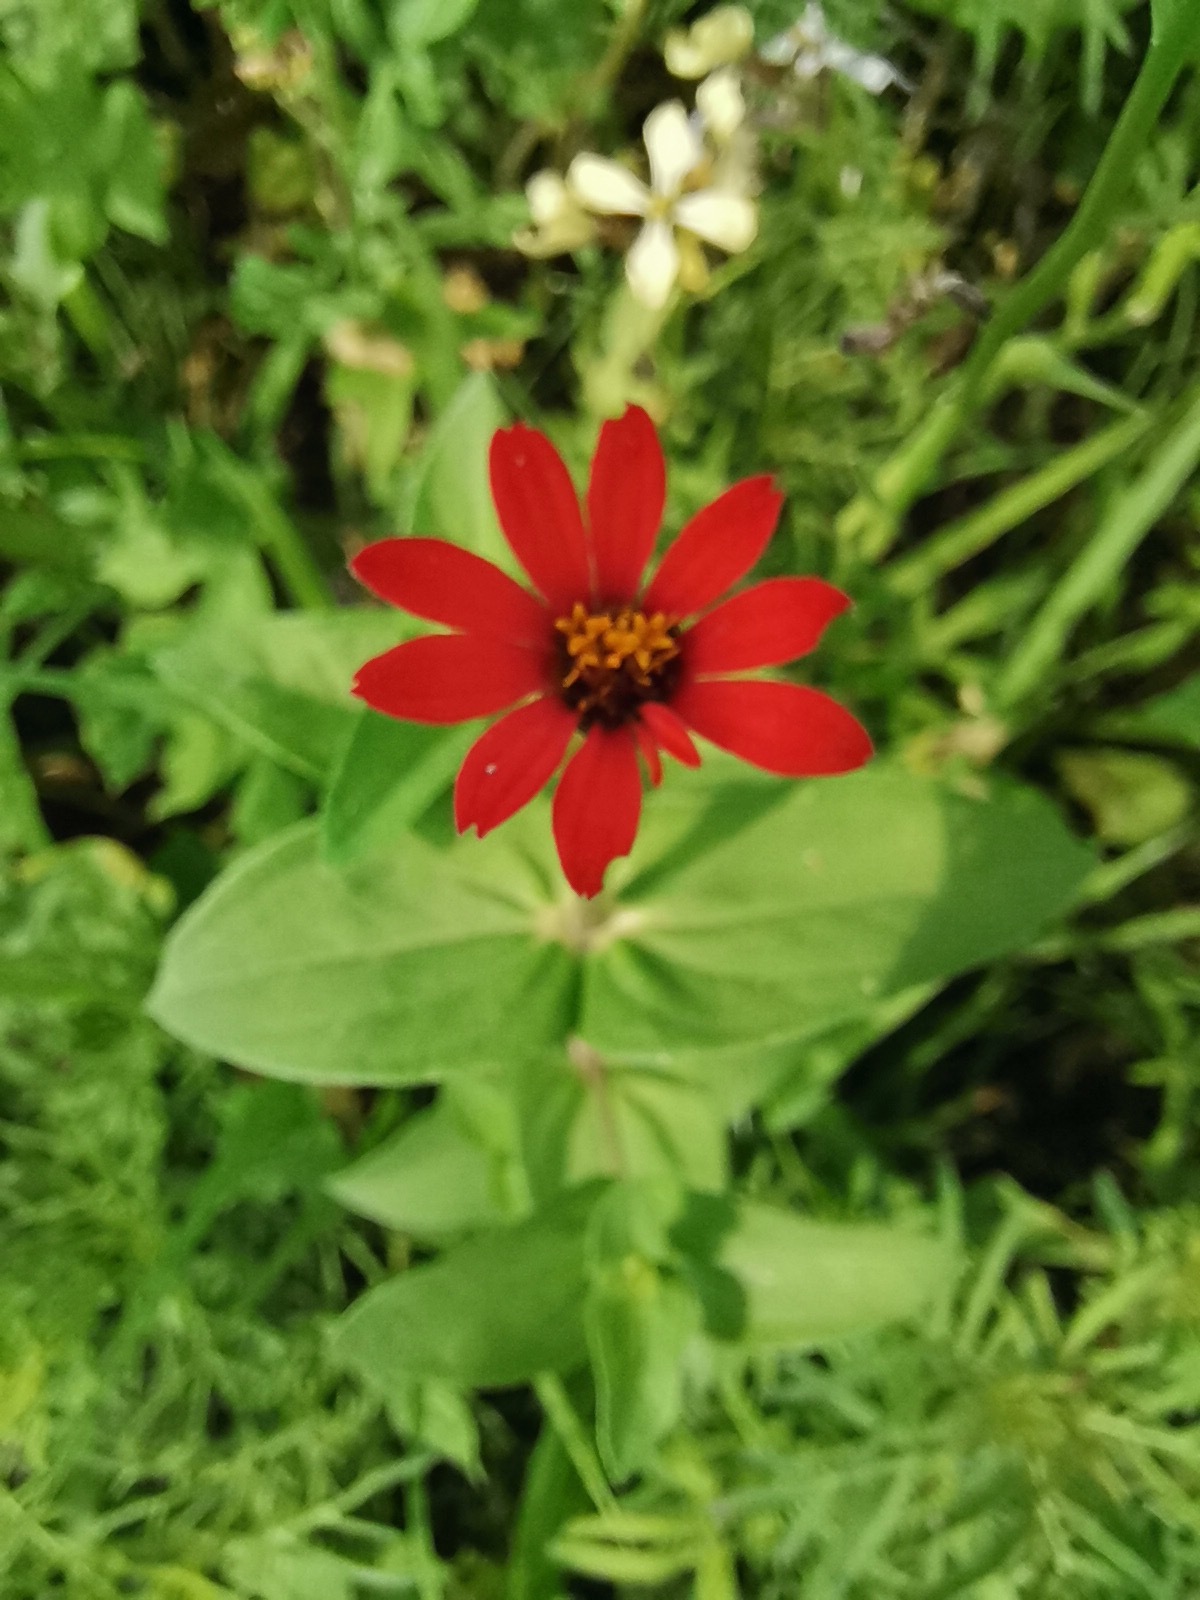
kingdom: Plantae
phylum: Tracheophyta
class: Magnoliopsida
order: Asterales
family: Asteraceae
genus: Zinnia
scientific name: Zinnia peruviana
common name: Peruvian zinnia
